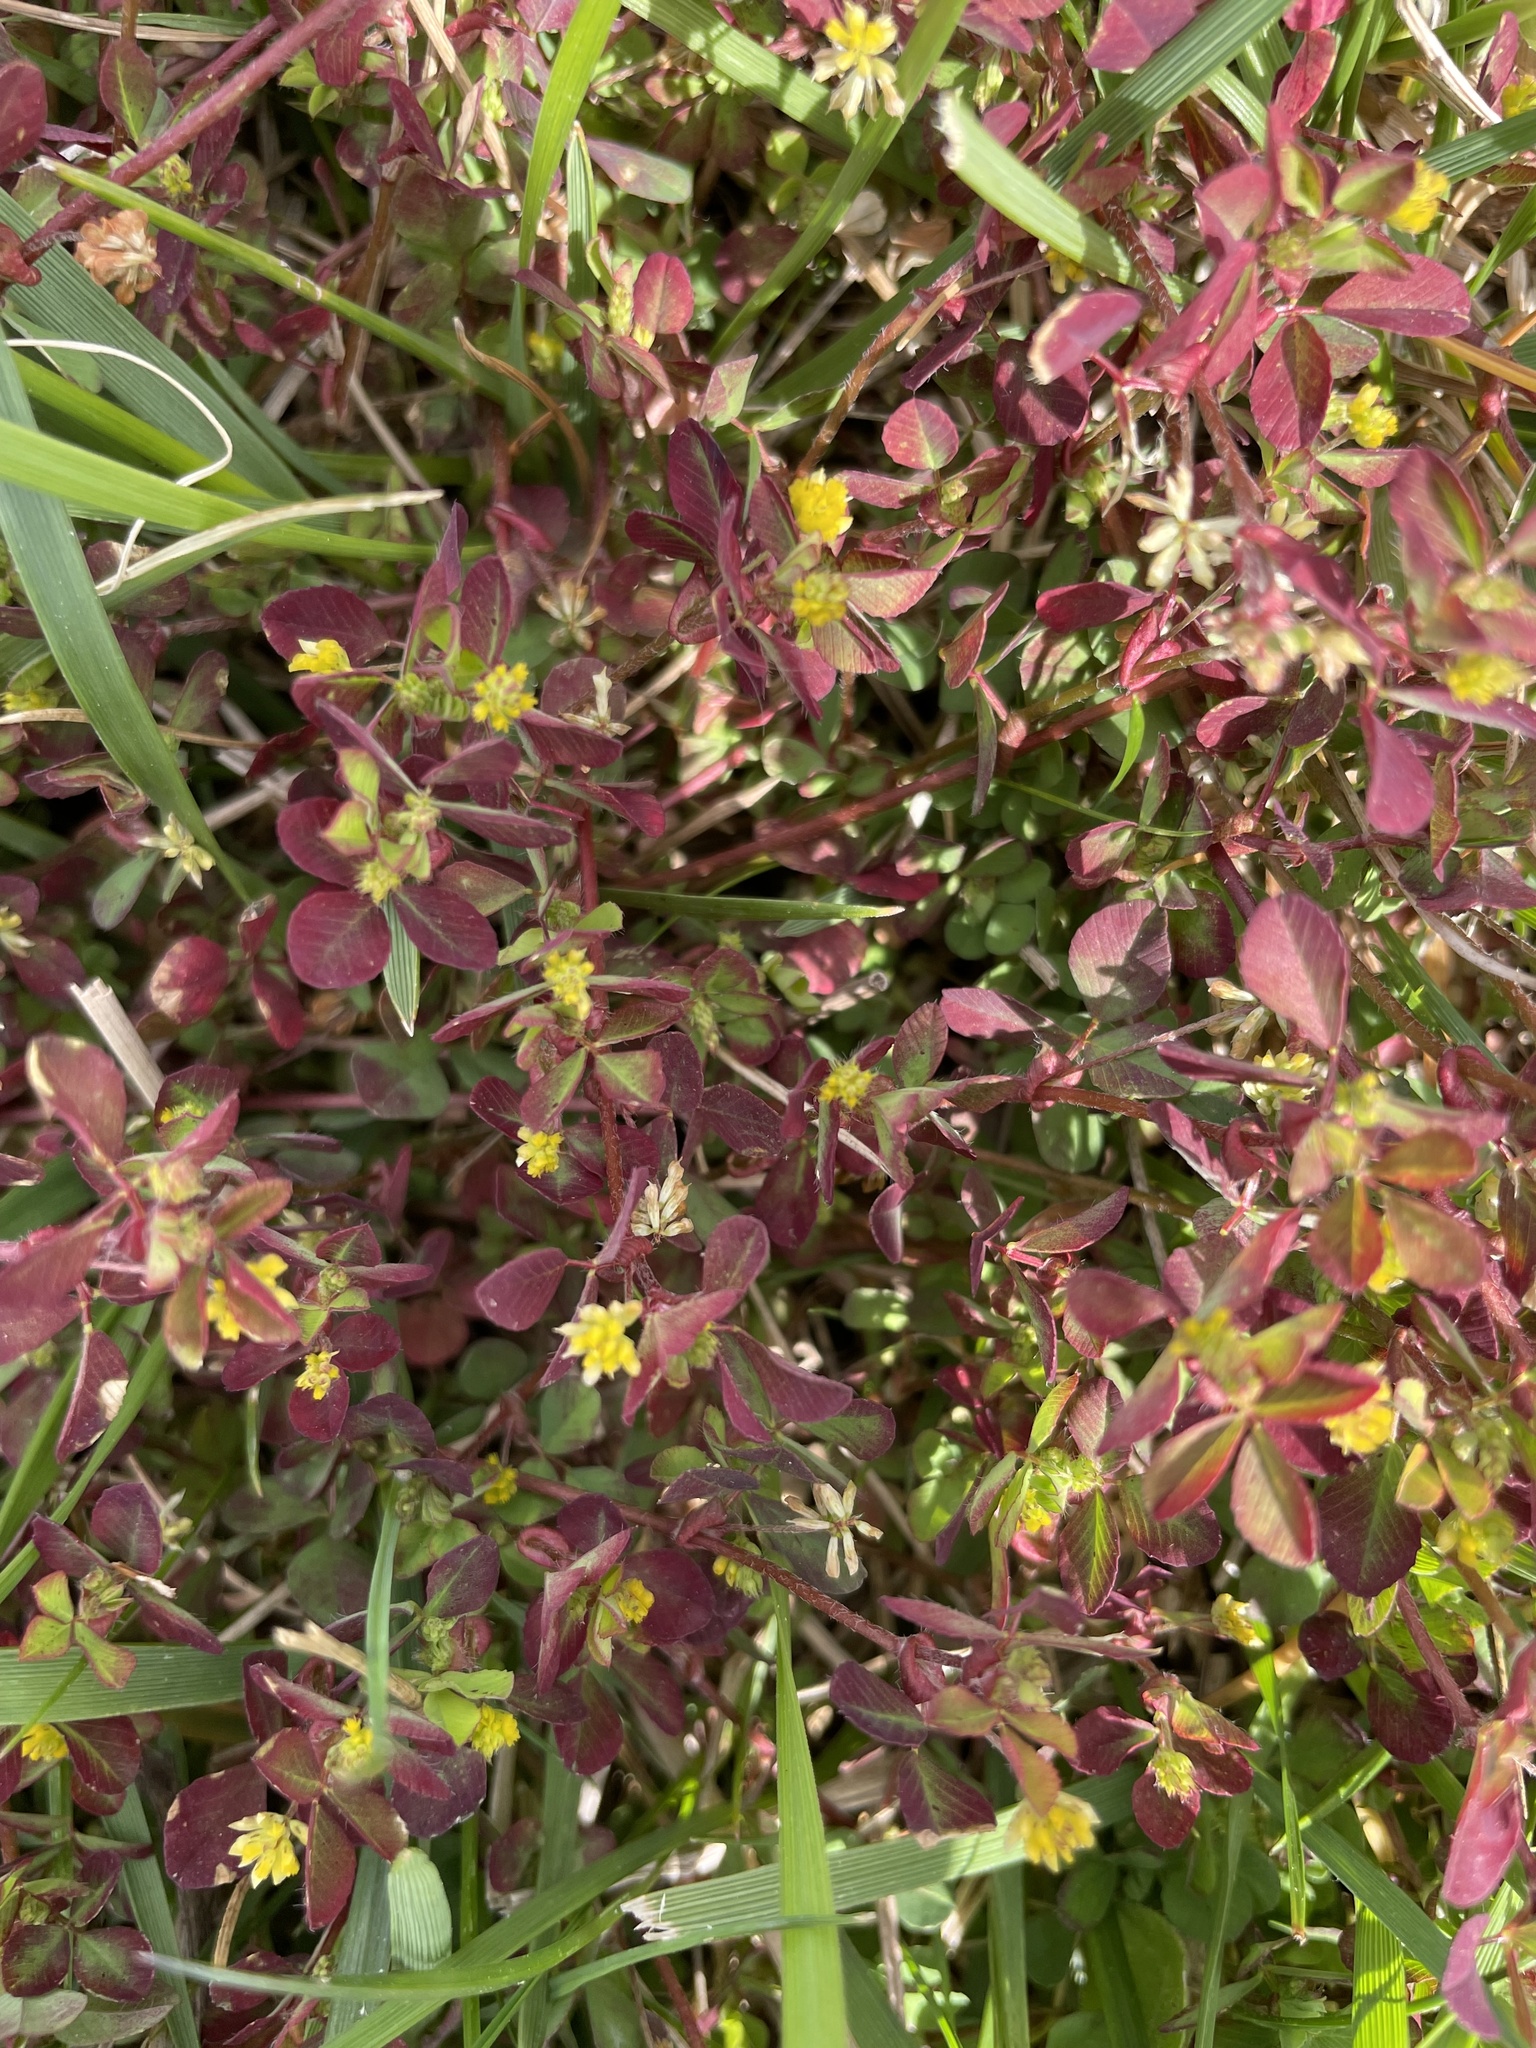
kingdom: Plantae
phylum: Tracheophyta
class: Magnoliopsida
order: Fabales
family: Fabaceae
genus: Trifolium
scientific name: Trifolium dubium
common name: Suckling clover
